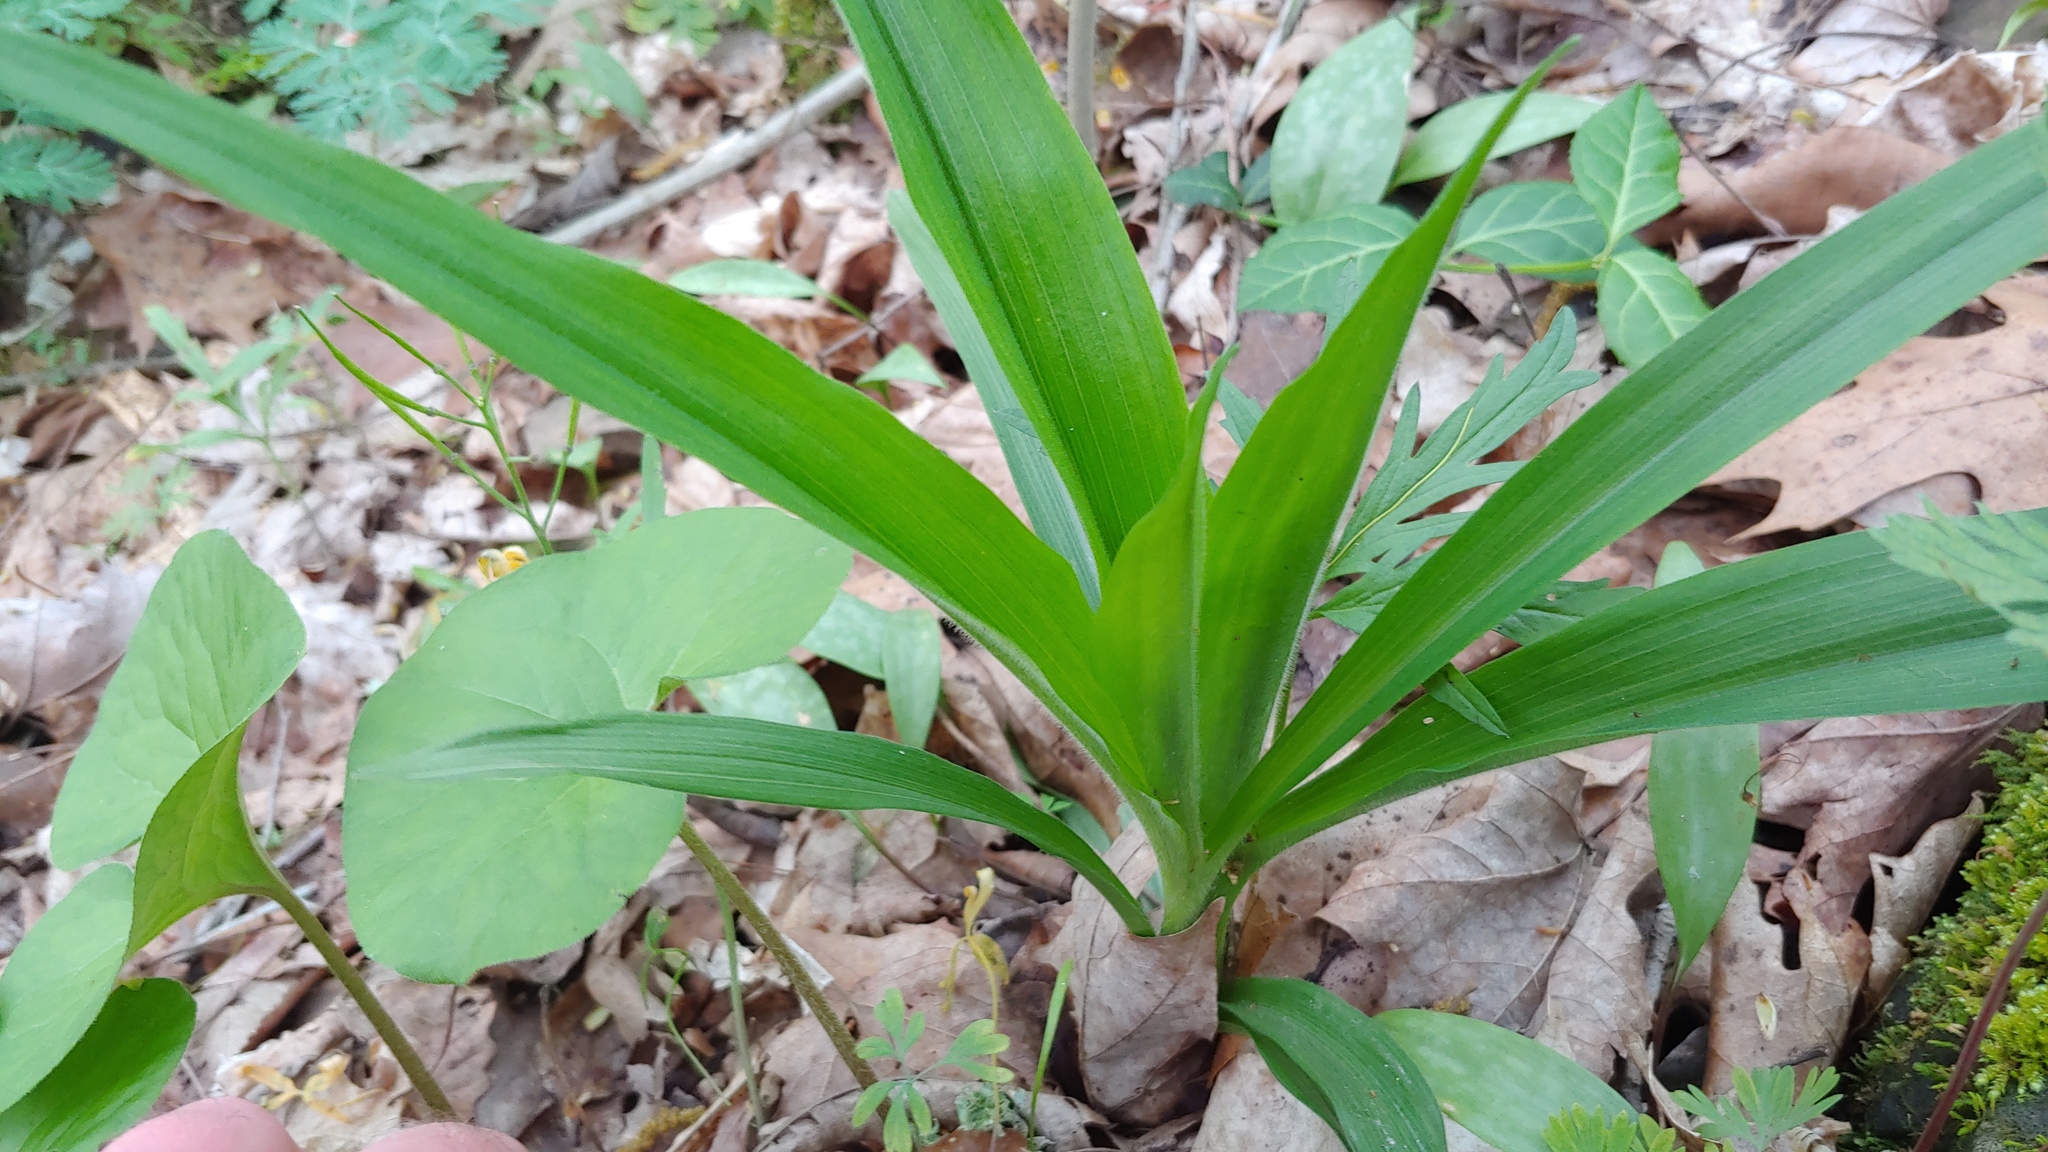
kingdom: Plantae
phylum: Tracheophyta
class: Liliopsida
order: Commelinales
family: Commelinaceae
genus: Tradescantia
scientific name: Tradescantia subaspera
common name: Wide-leaf spiderwort
